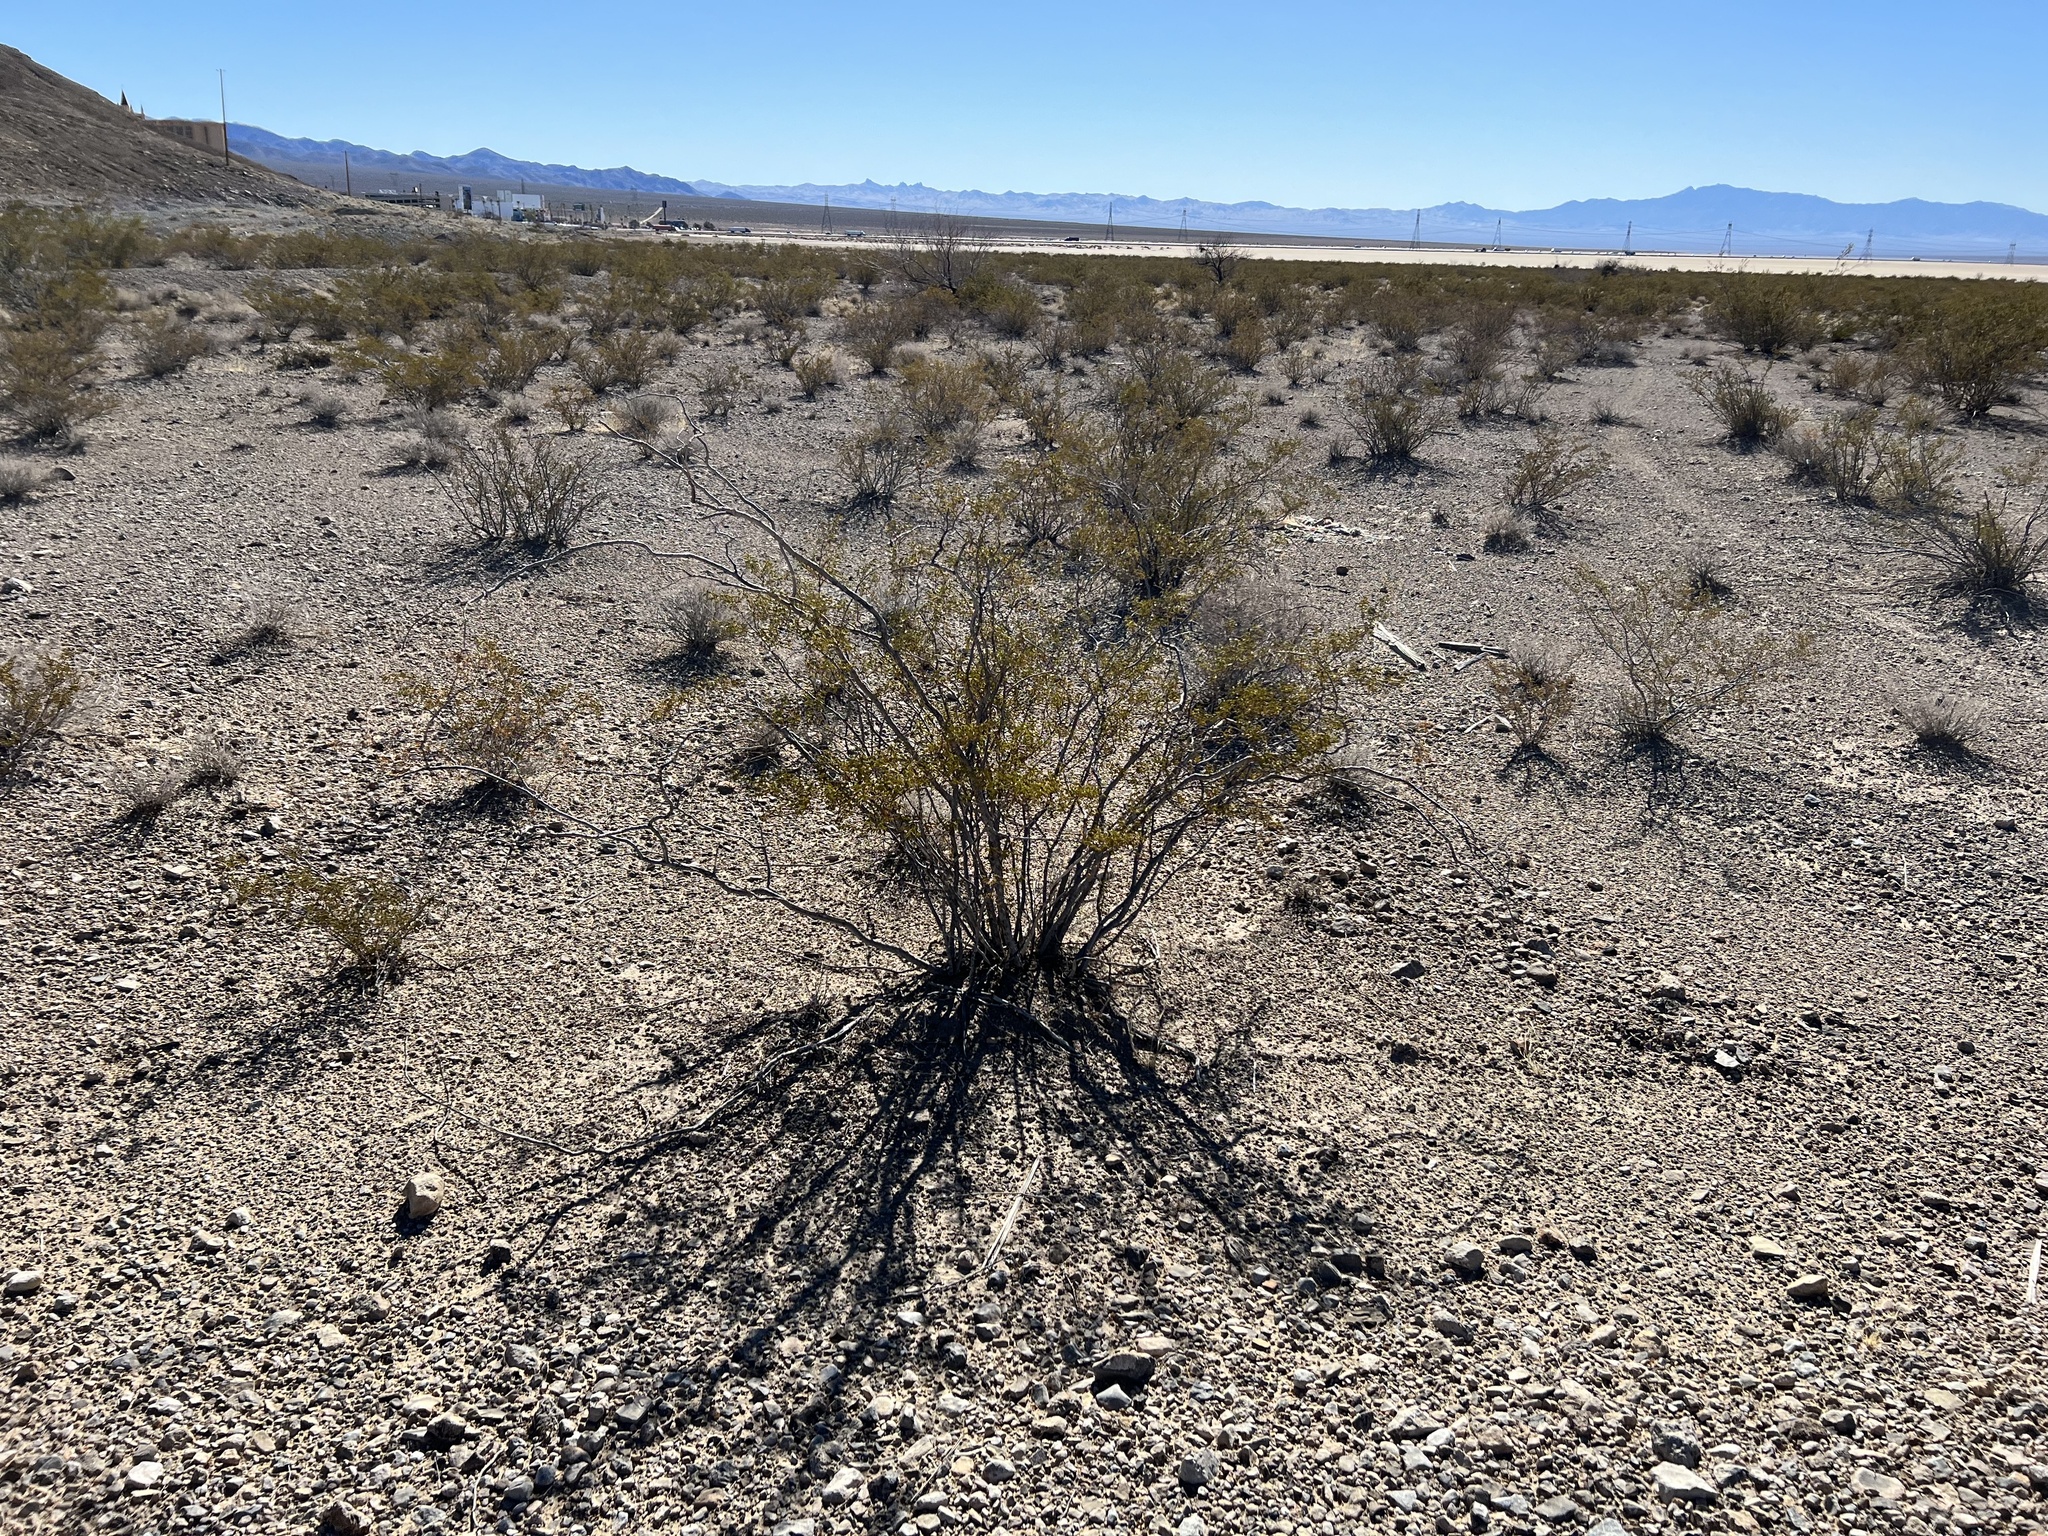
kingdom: Plantae
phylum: Tracheophyta
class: Magnoliopsida
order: Zygophyllales
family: Zygophyllaceae
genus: Larrea
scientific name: Larrea tridentata
